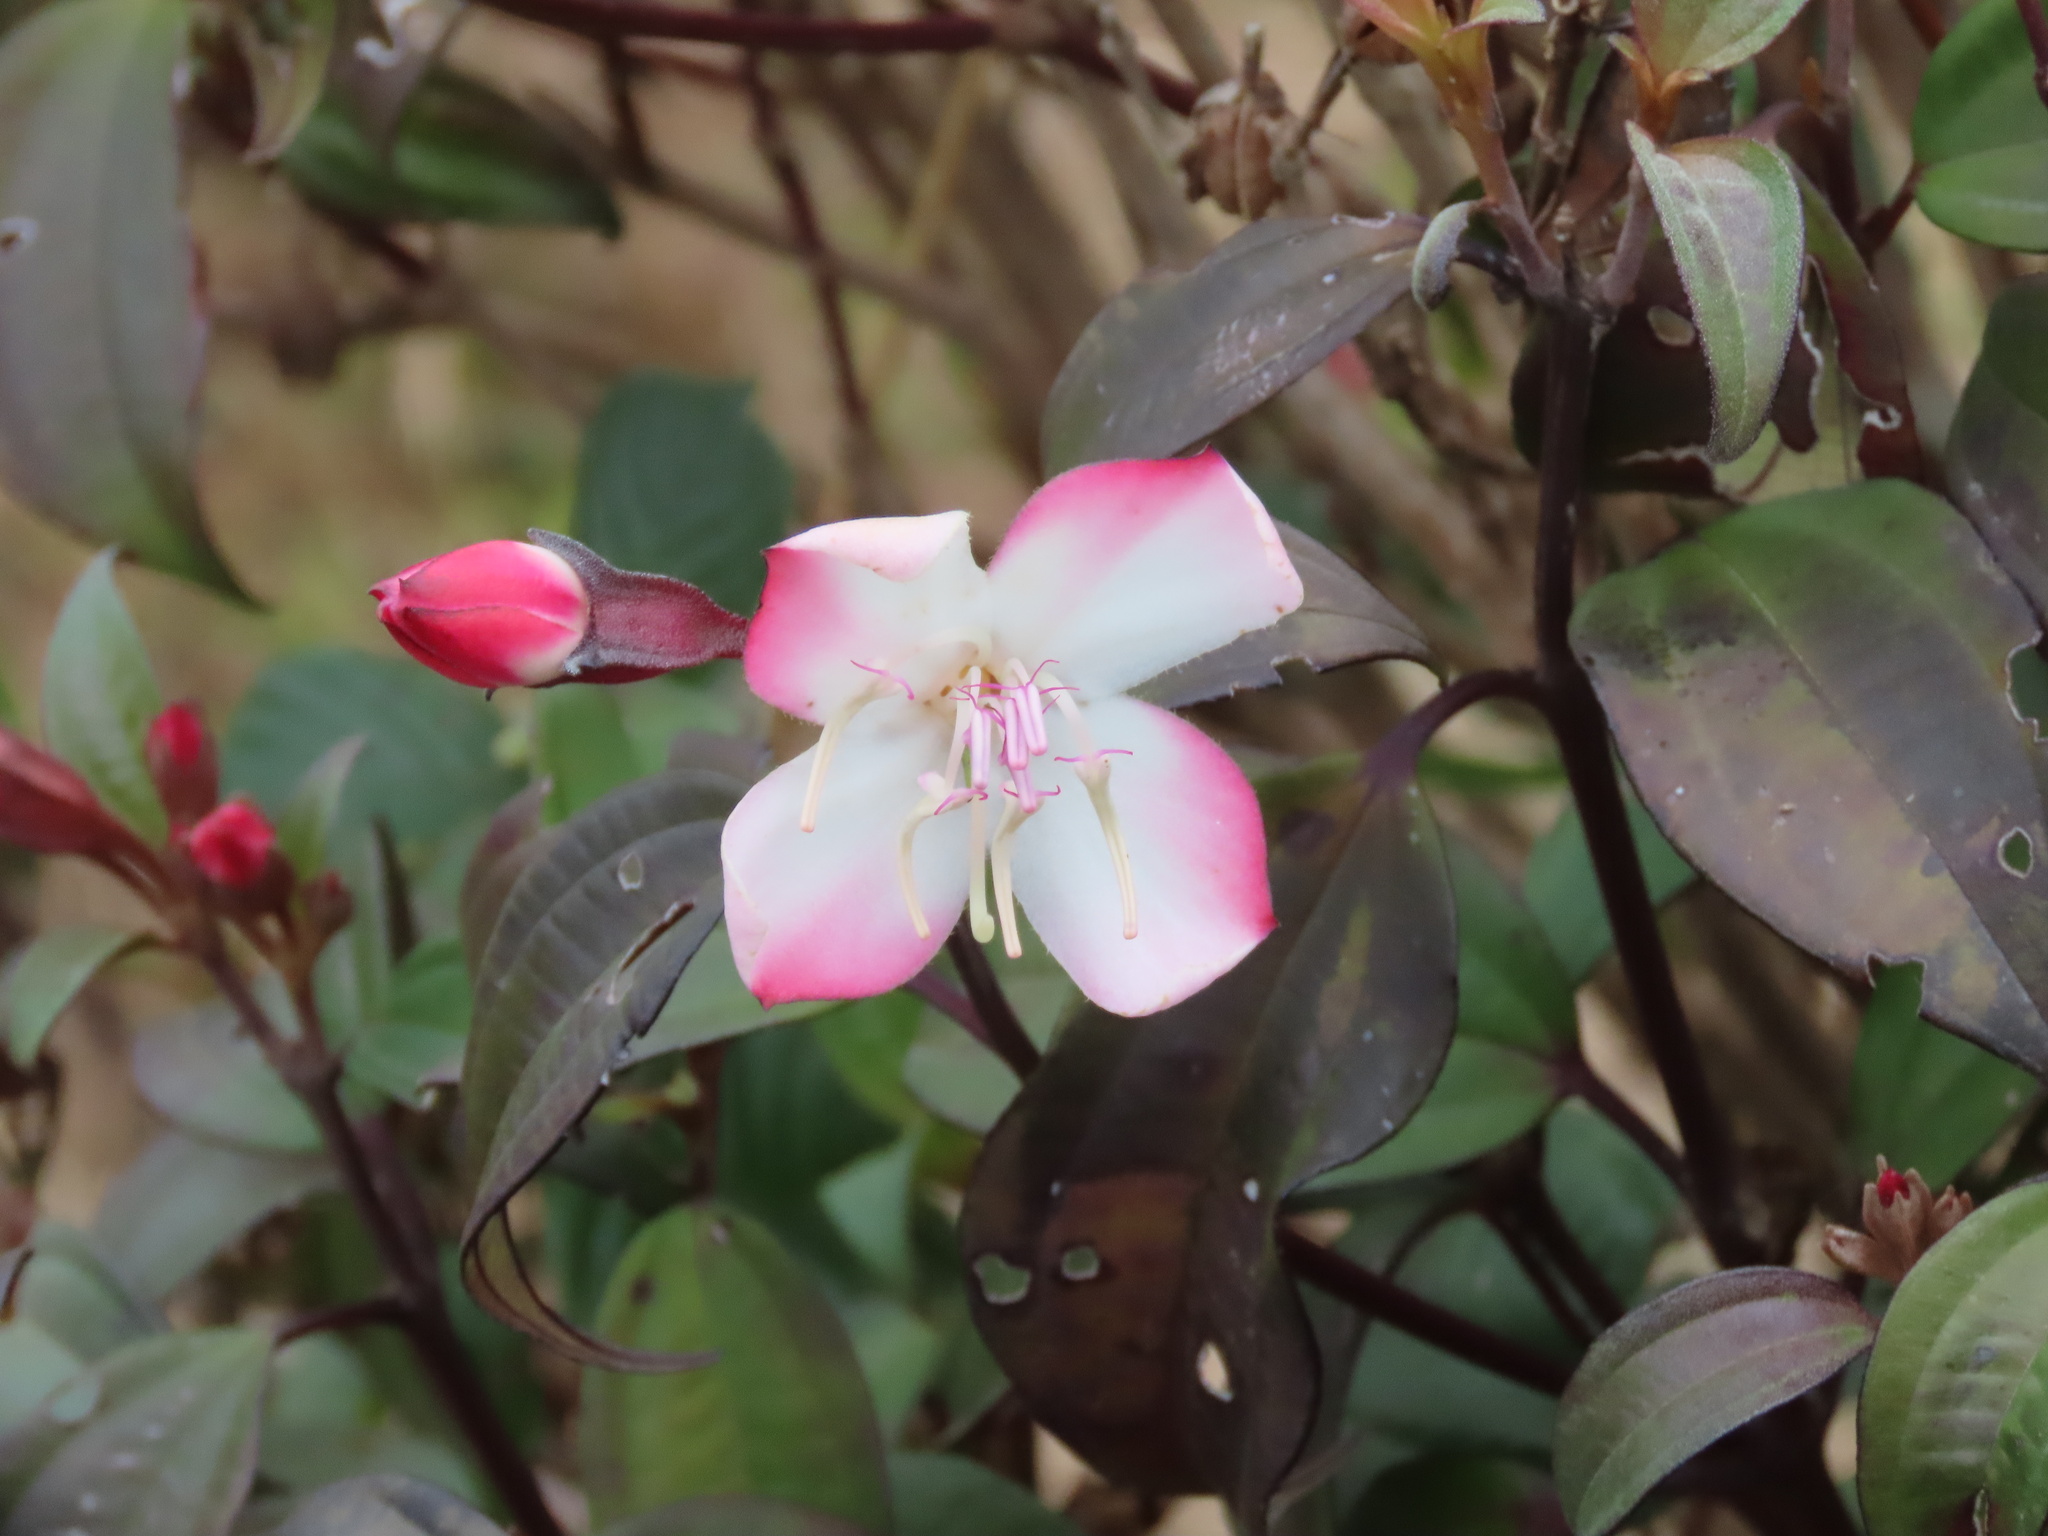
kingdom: Plantae
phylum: Tracheophyta
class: Magnoliopsida
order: Myrtales
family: Melastomataceae
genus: Barthea
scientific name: Barthea barthei
